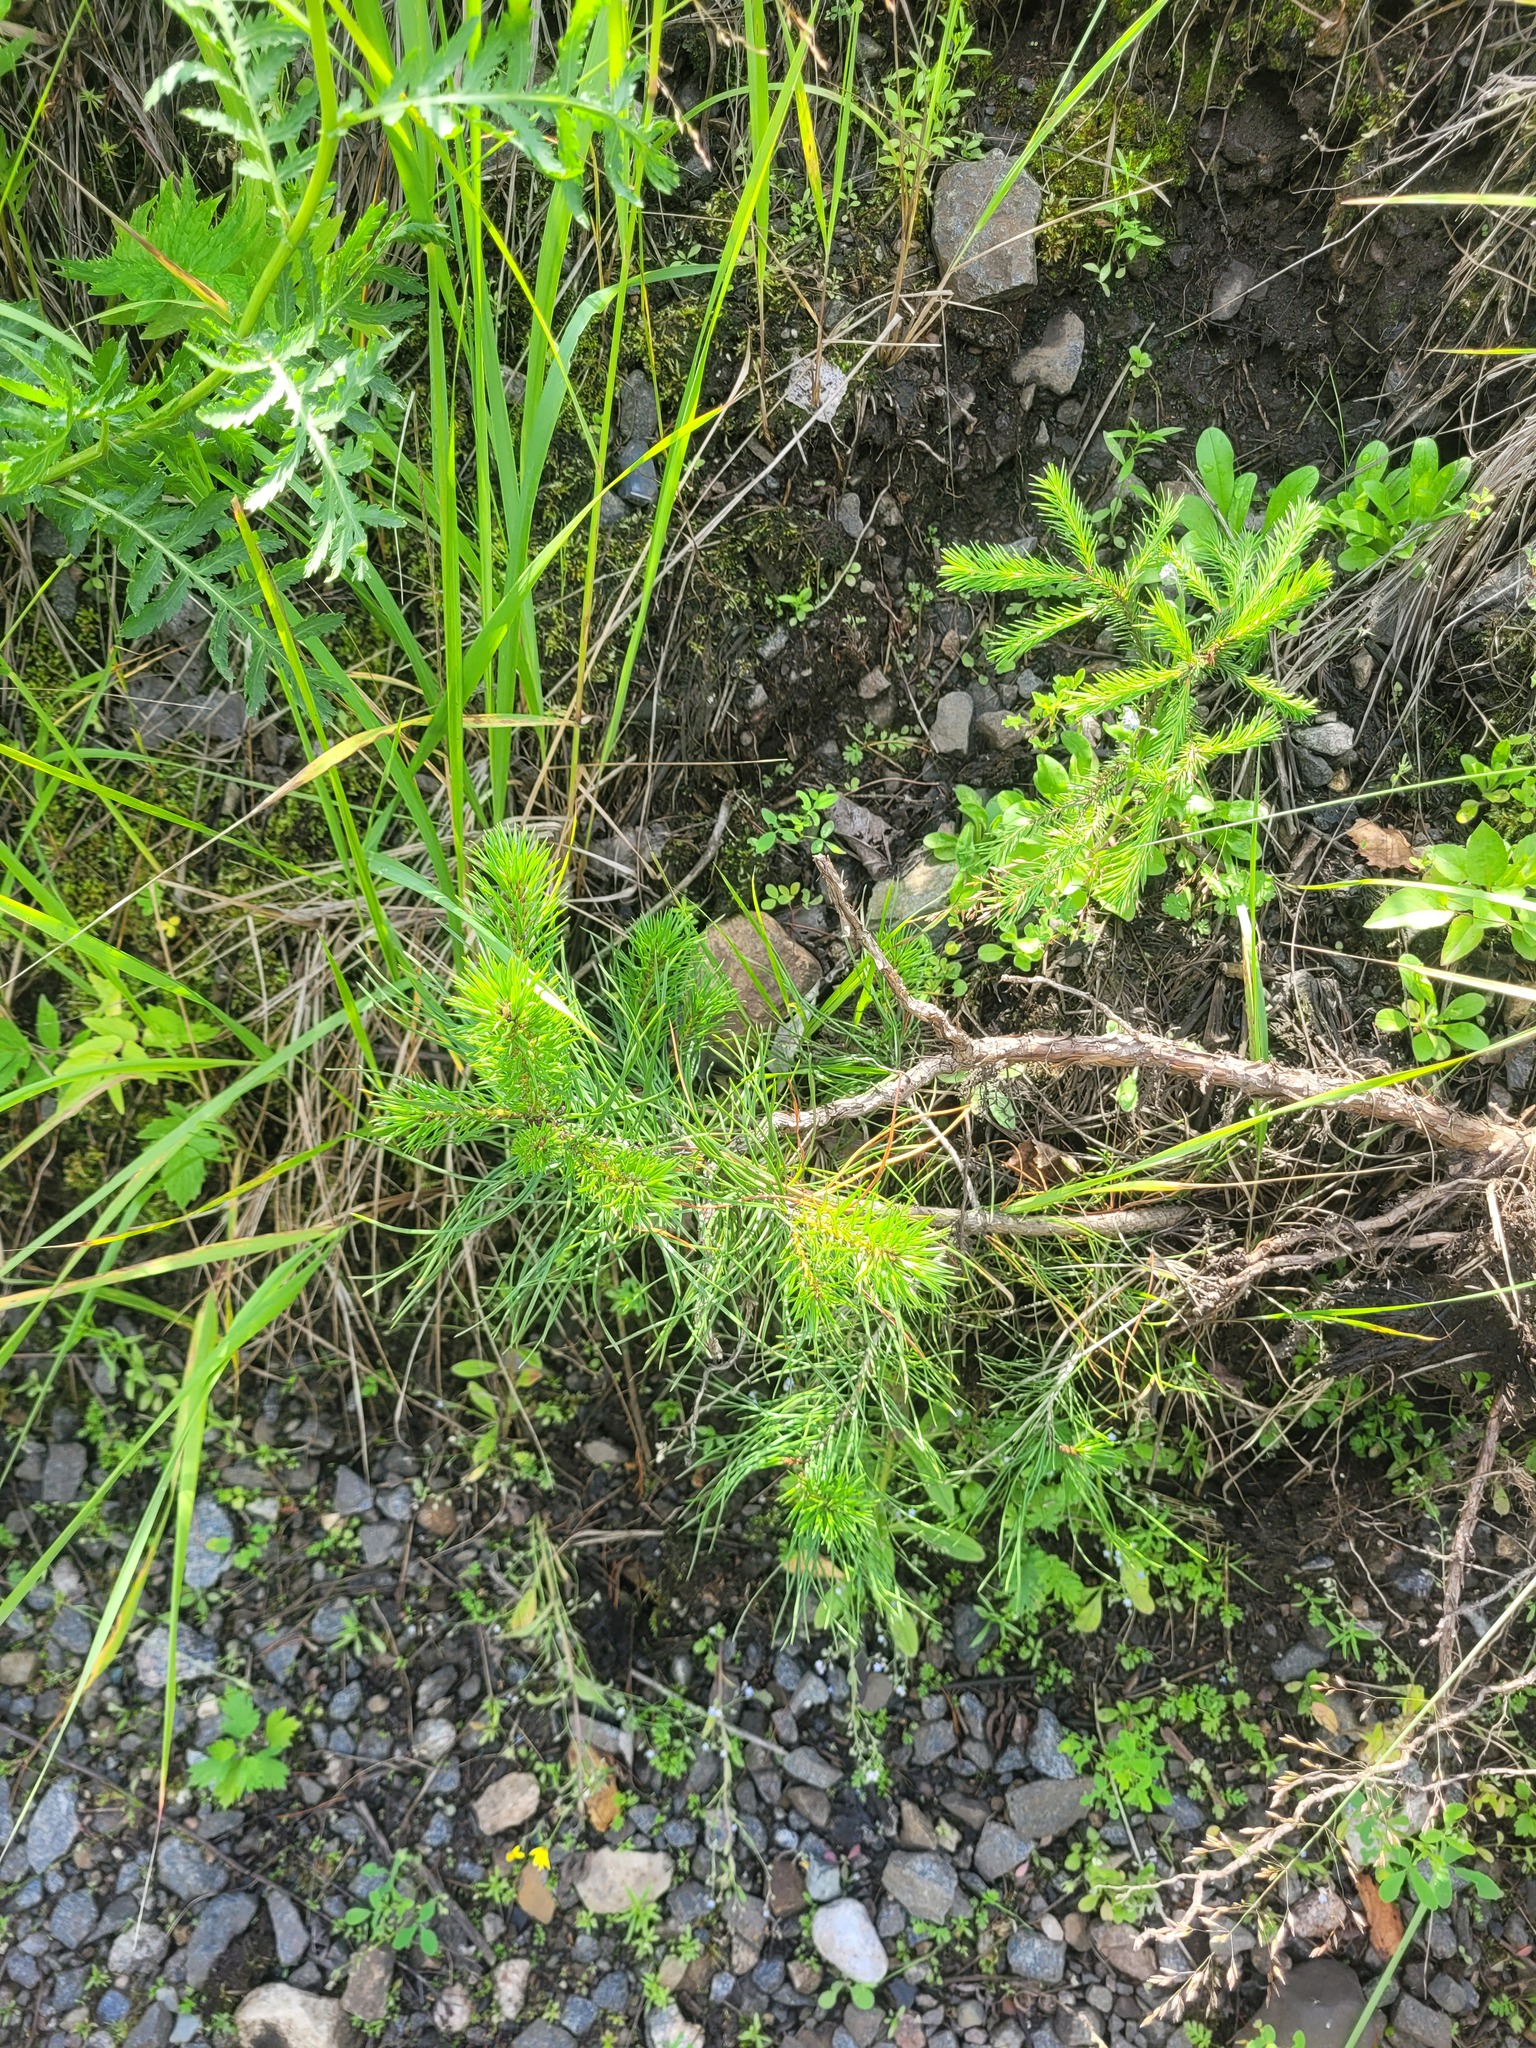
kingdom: Plantae
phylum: Tracheophyta
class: Pinopsida
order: Pinales
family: Pinaceae
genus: Pinus
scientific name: Pinus sylvestris
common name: Scots pine
